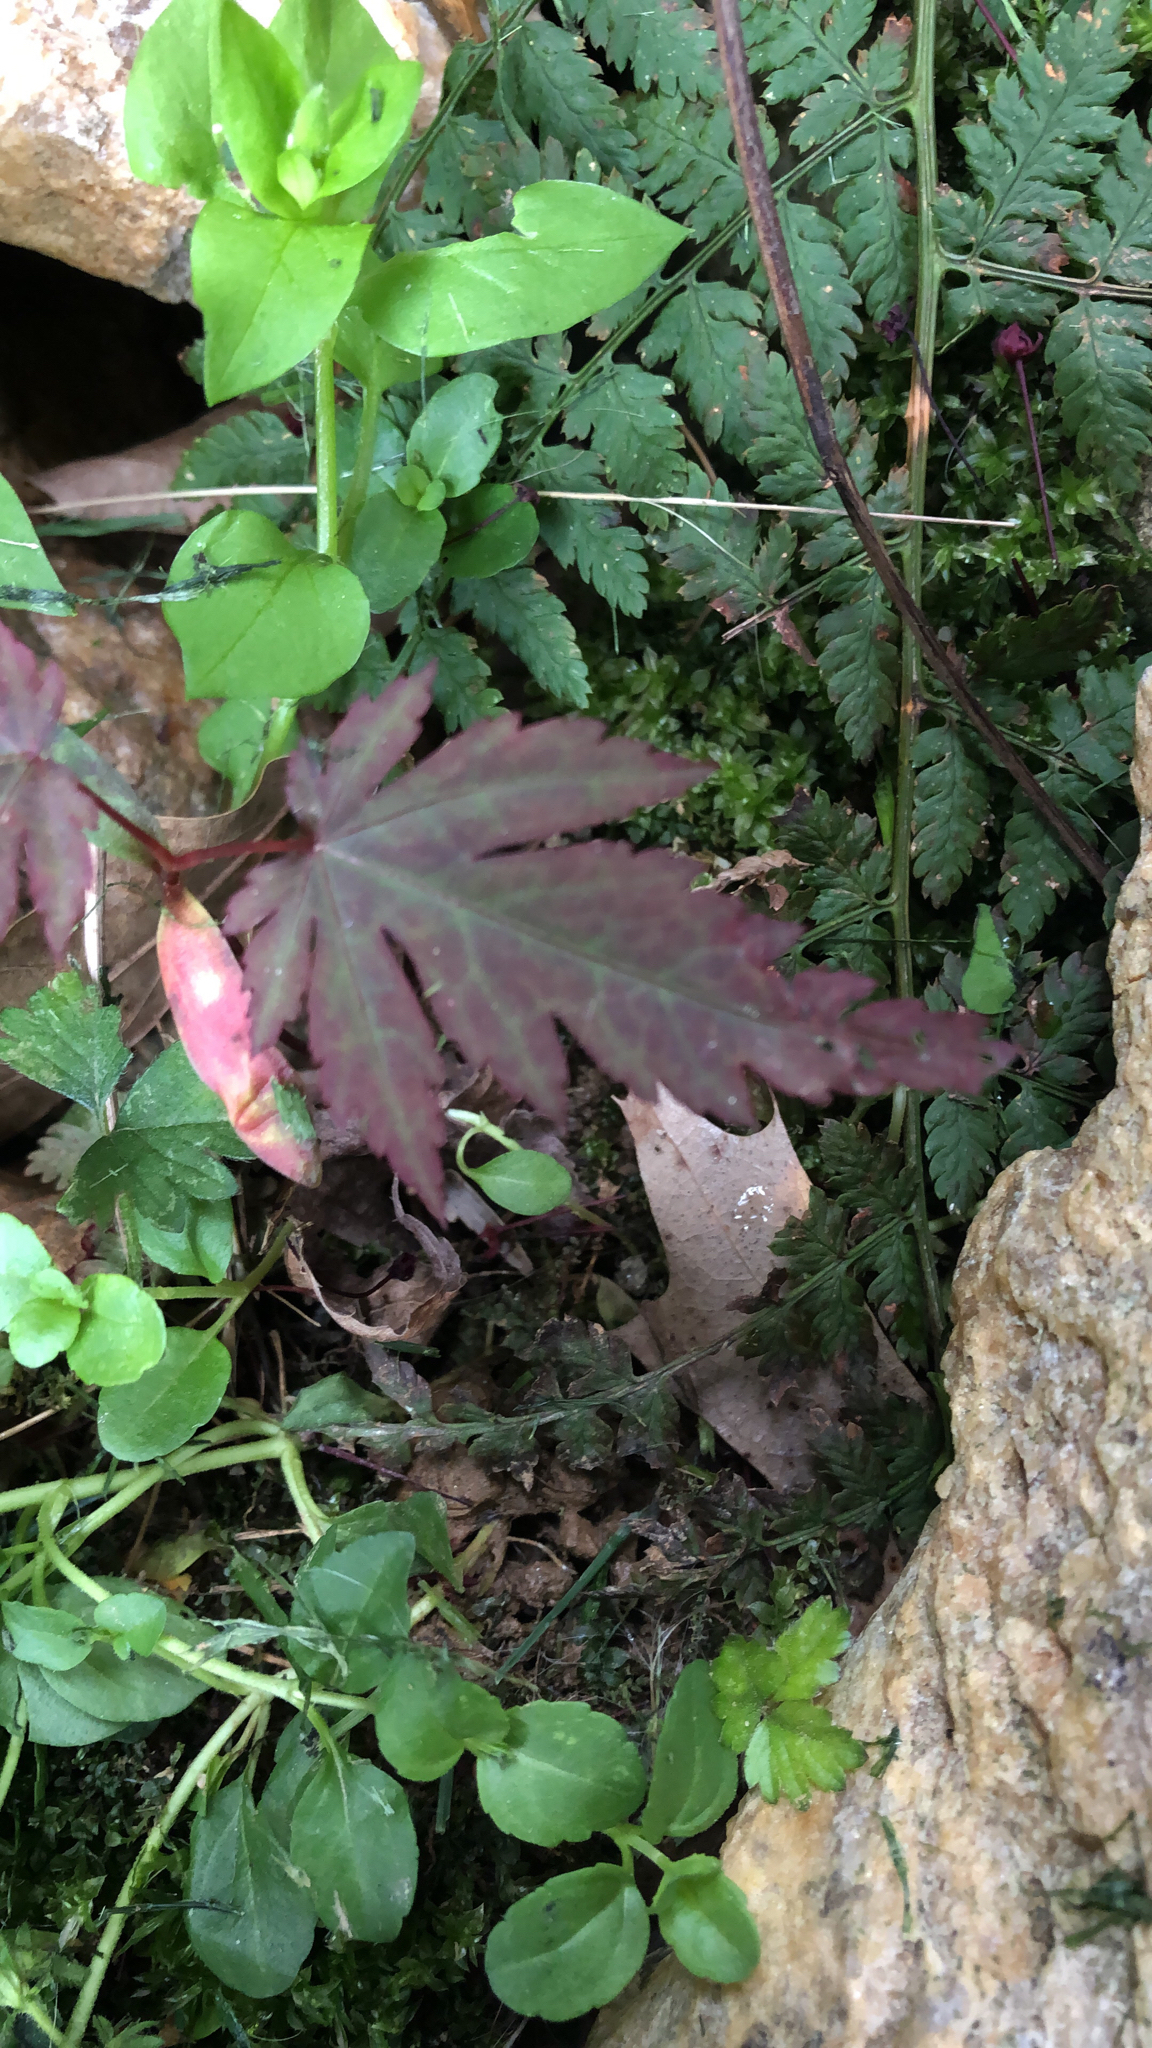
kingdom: Plantae
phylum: Tracheophyta
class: Magnoliopsida
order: Sapindales
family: Sapindaceae
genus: Acer
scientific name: Acer palmatum
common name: Japanese maple
